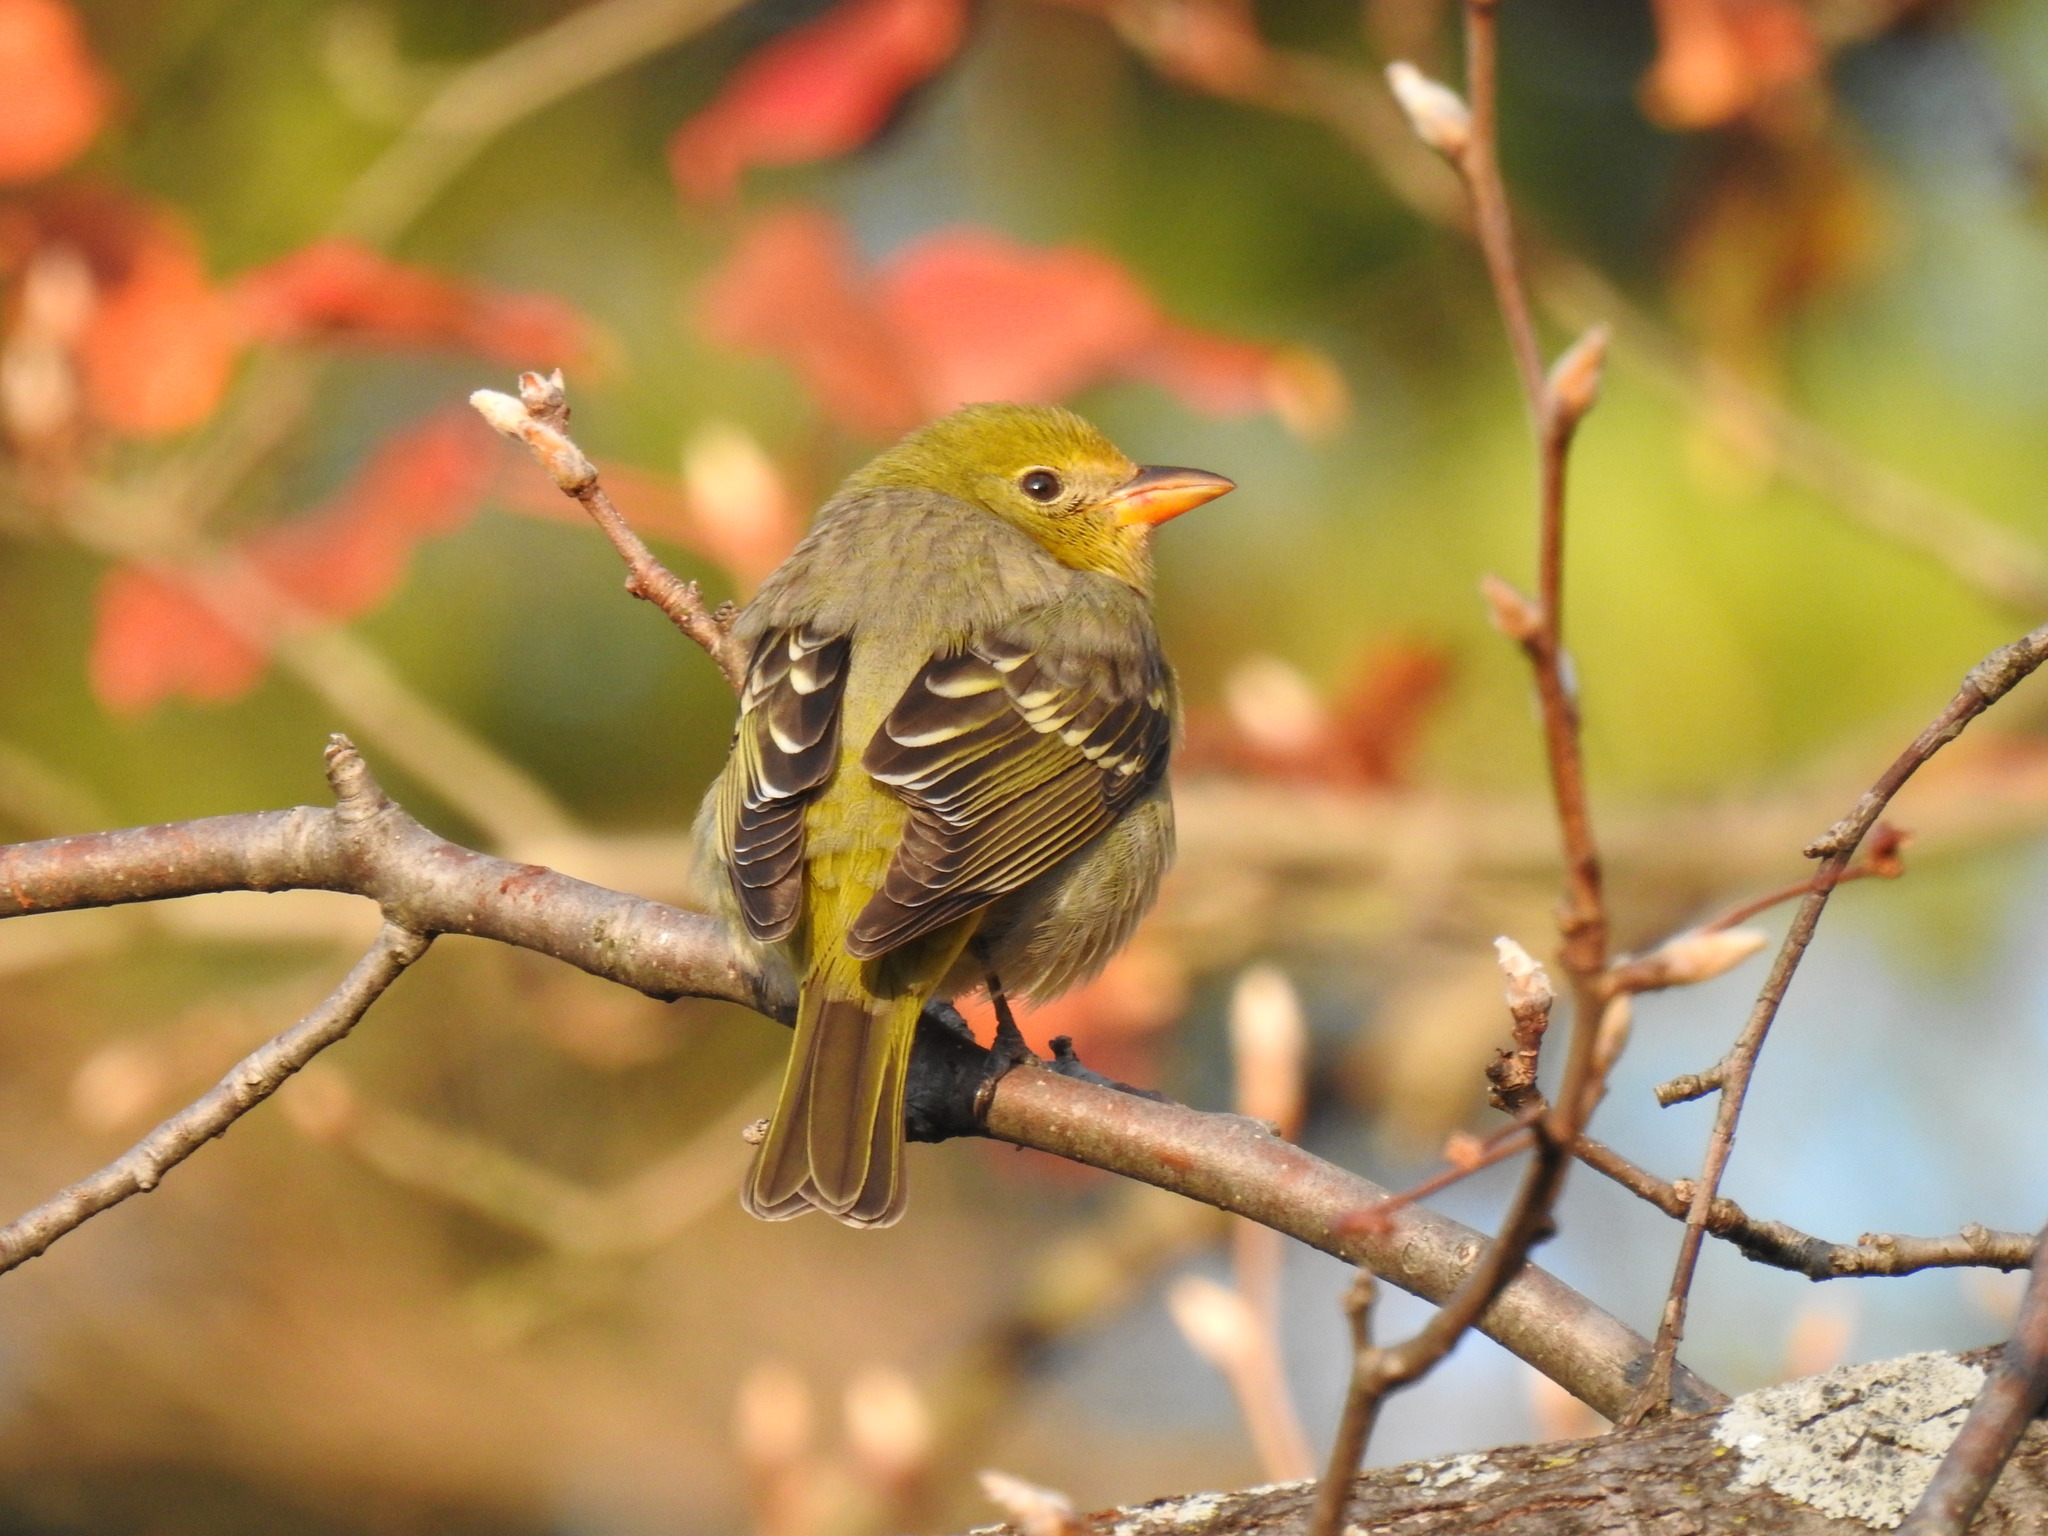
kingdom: Animalia
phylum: Chordata
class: Aves
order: Passeriformes
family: Cardinalidae
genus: Piranga
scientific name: Piranga ludoviciana
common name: Western tanager
